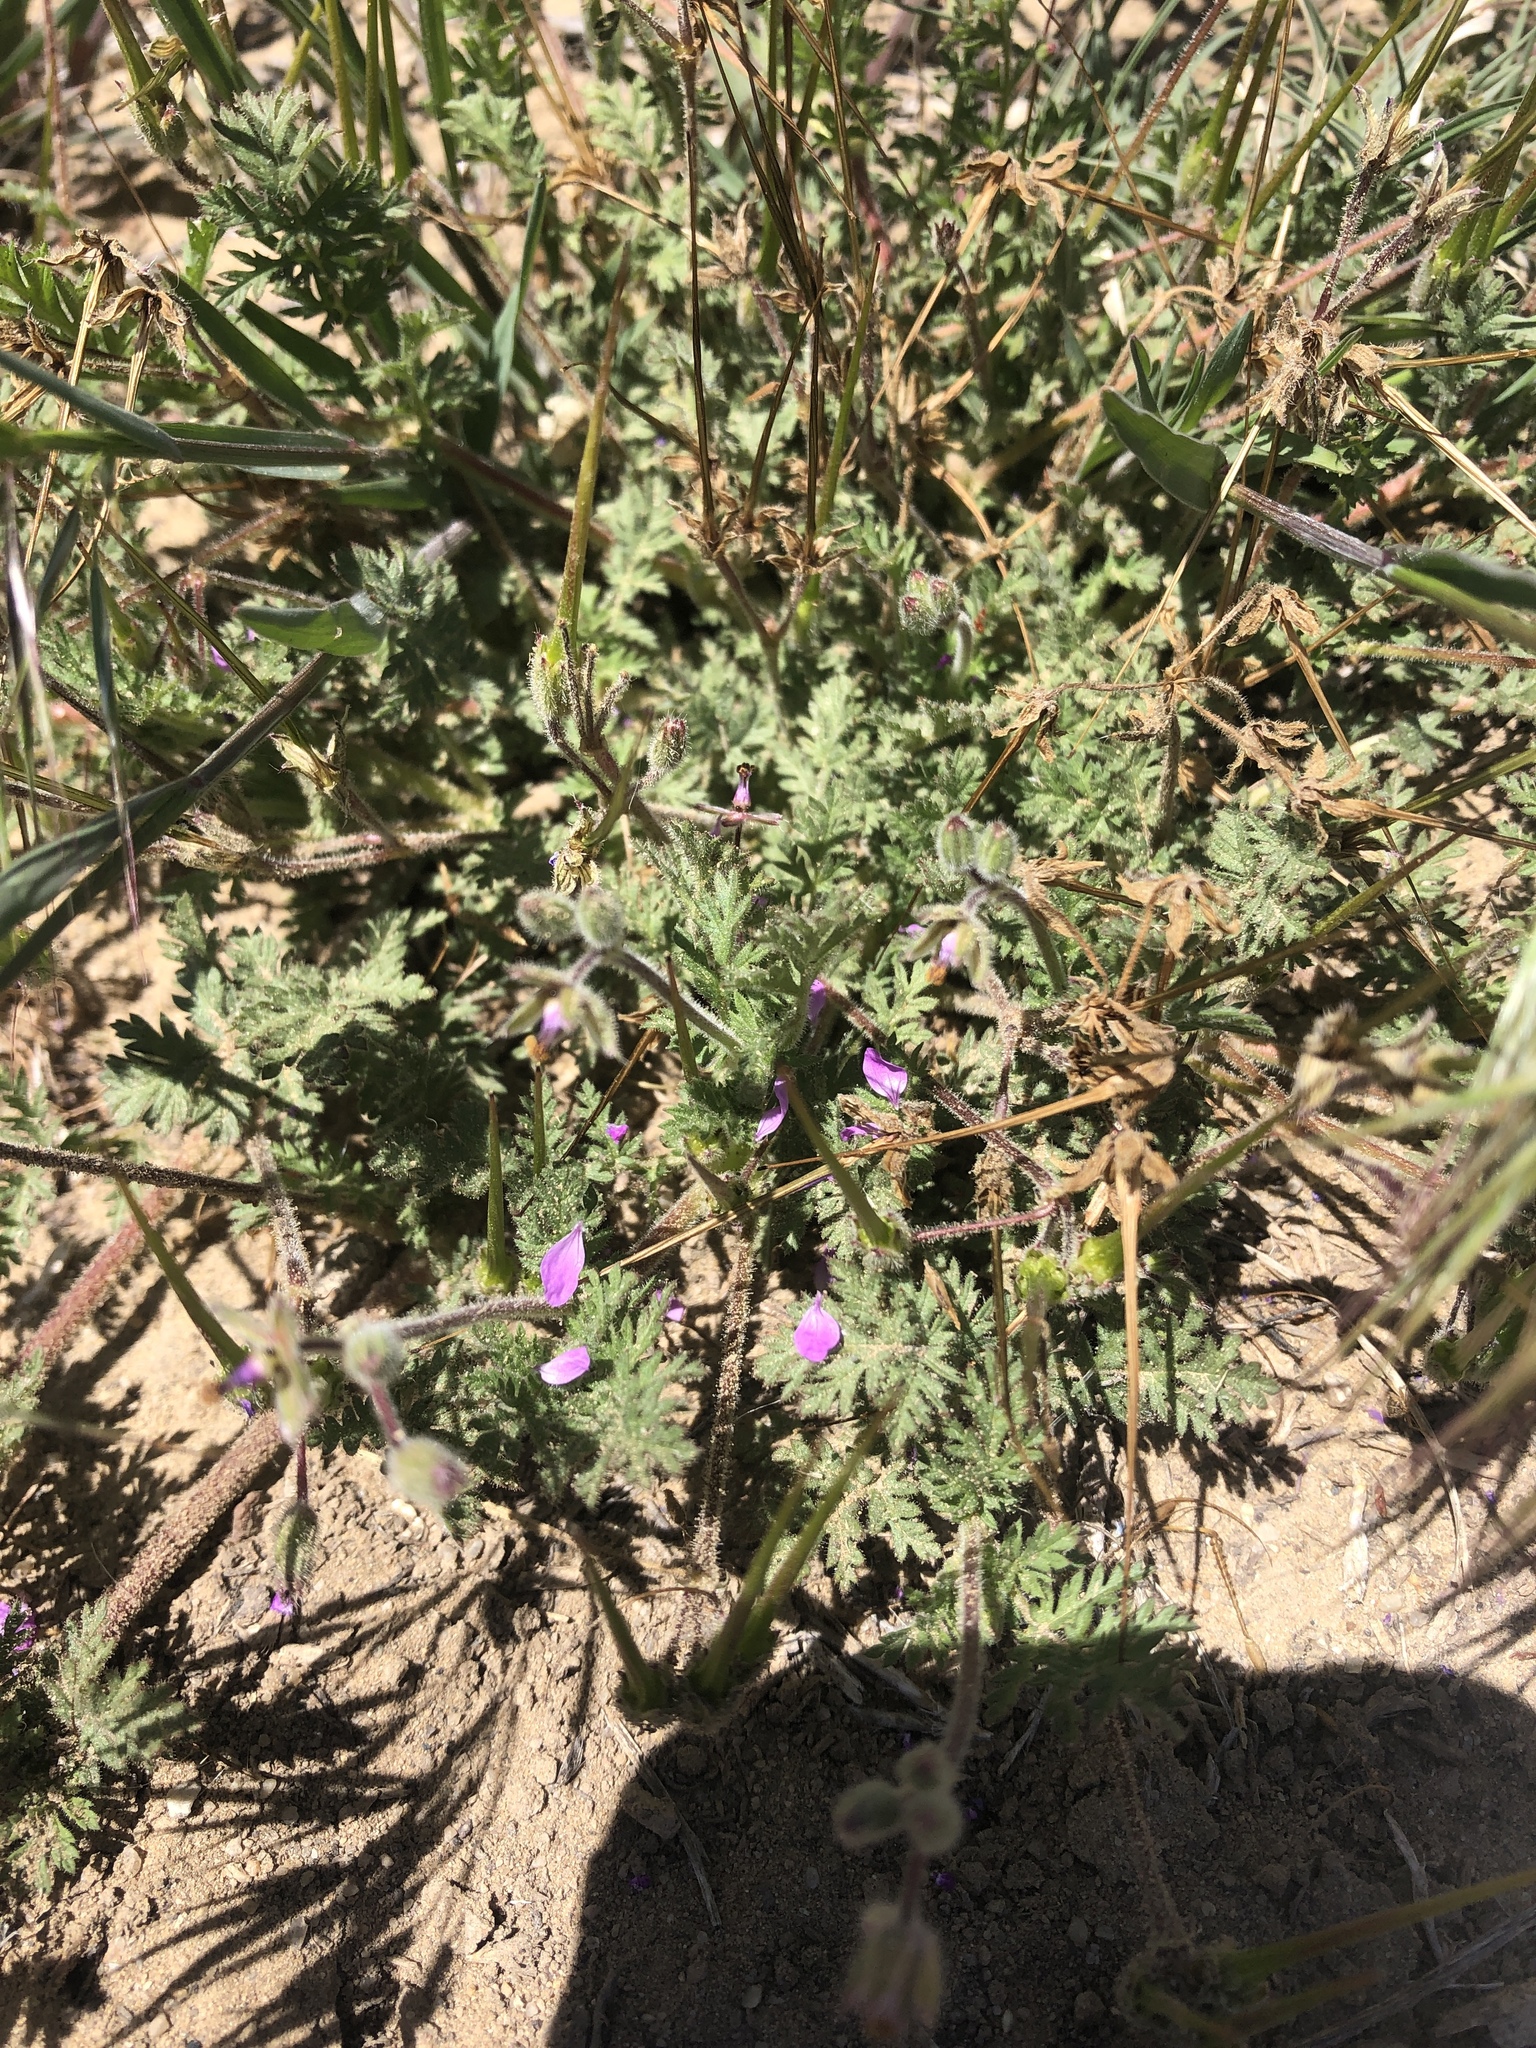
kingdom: Plantae
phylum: Tracheophyta
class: Magnoliopsida
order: Geraniales
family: Geraniaceae
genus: Erodium
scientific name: Erodium cicutarium
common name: Common stork's-bill
